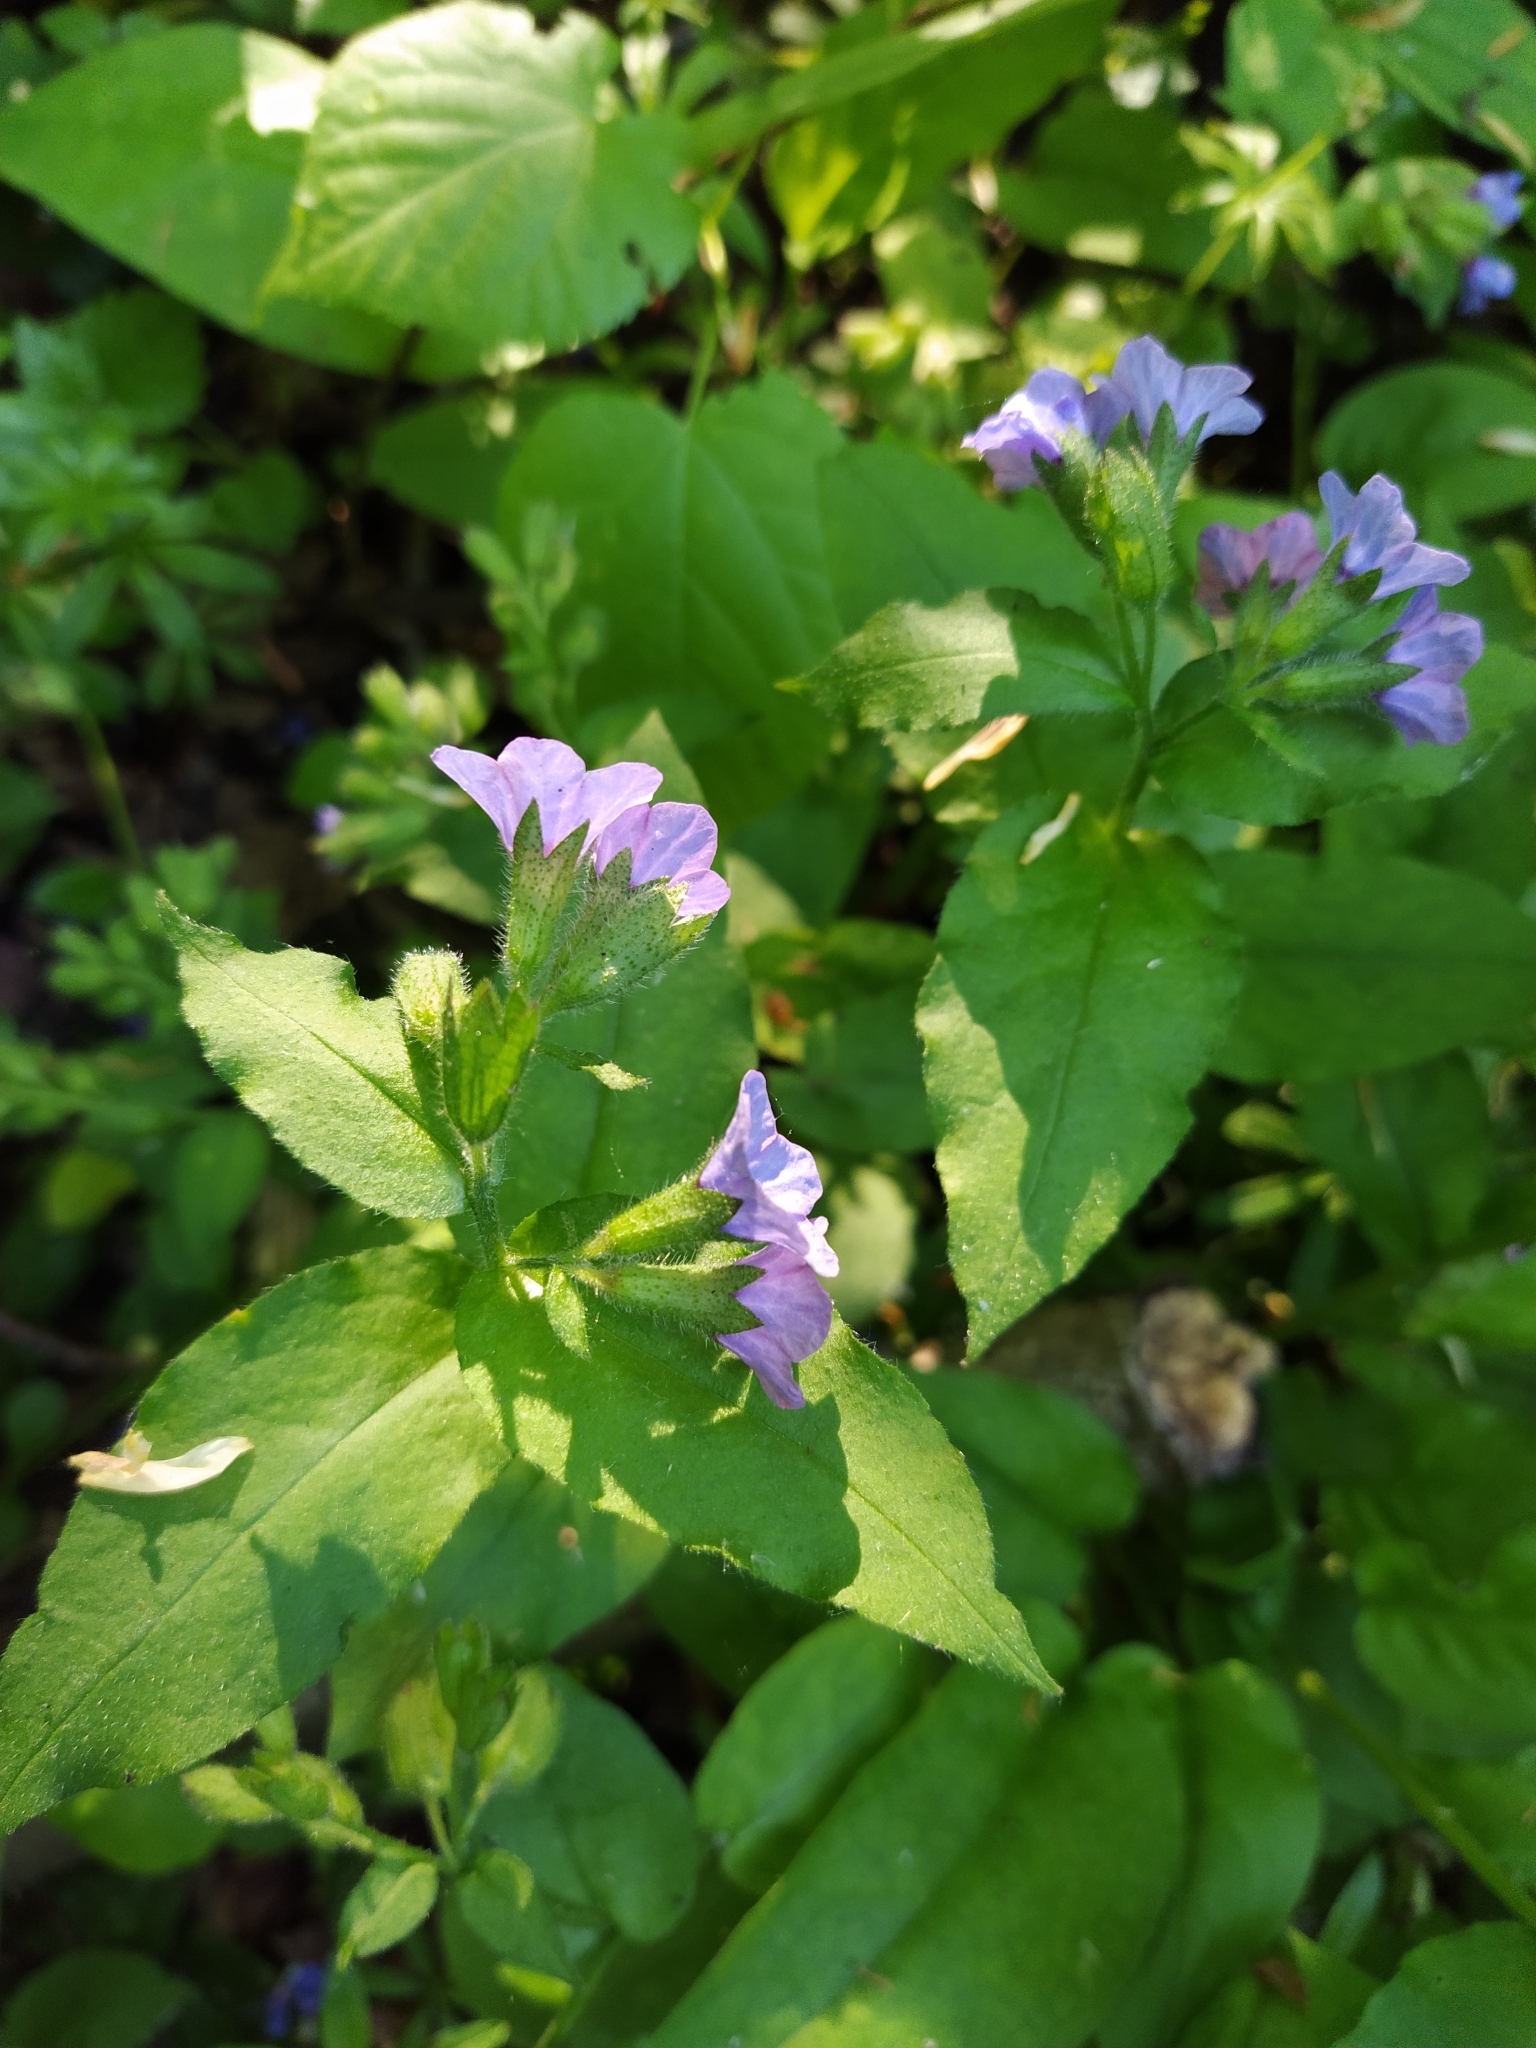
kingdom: Plantae
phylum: Tracheophyta
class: Magnoliopsida
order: Boraginales
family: Boraginaceae
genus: Pulmonaria
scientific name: Pulmonaria obscura
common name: Suffolk lungwort
